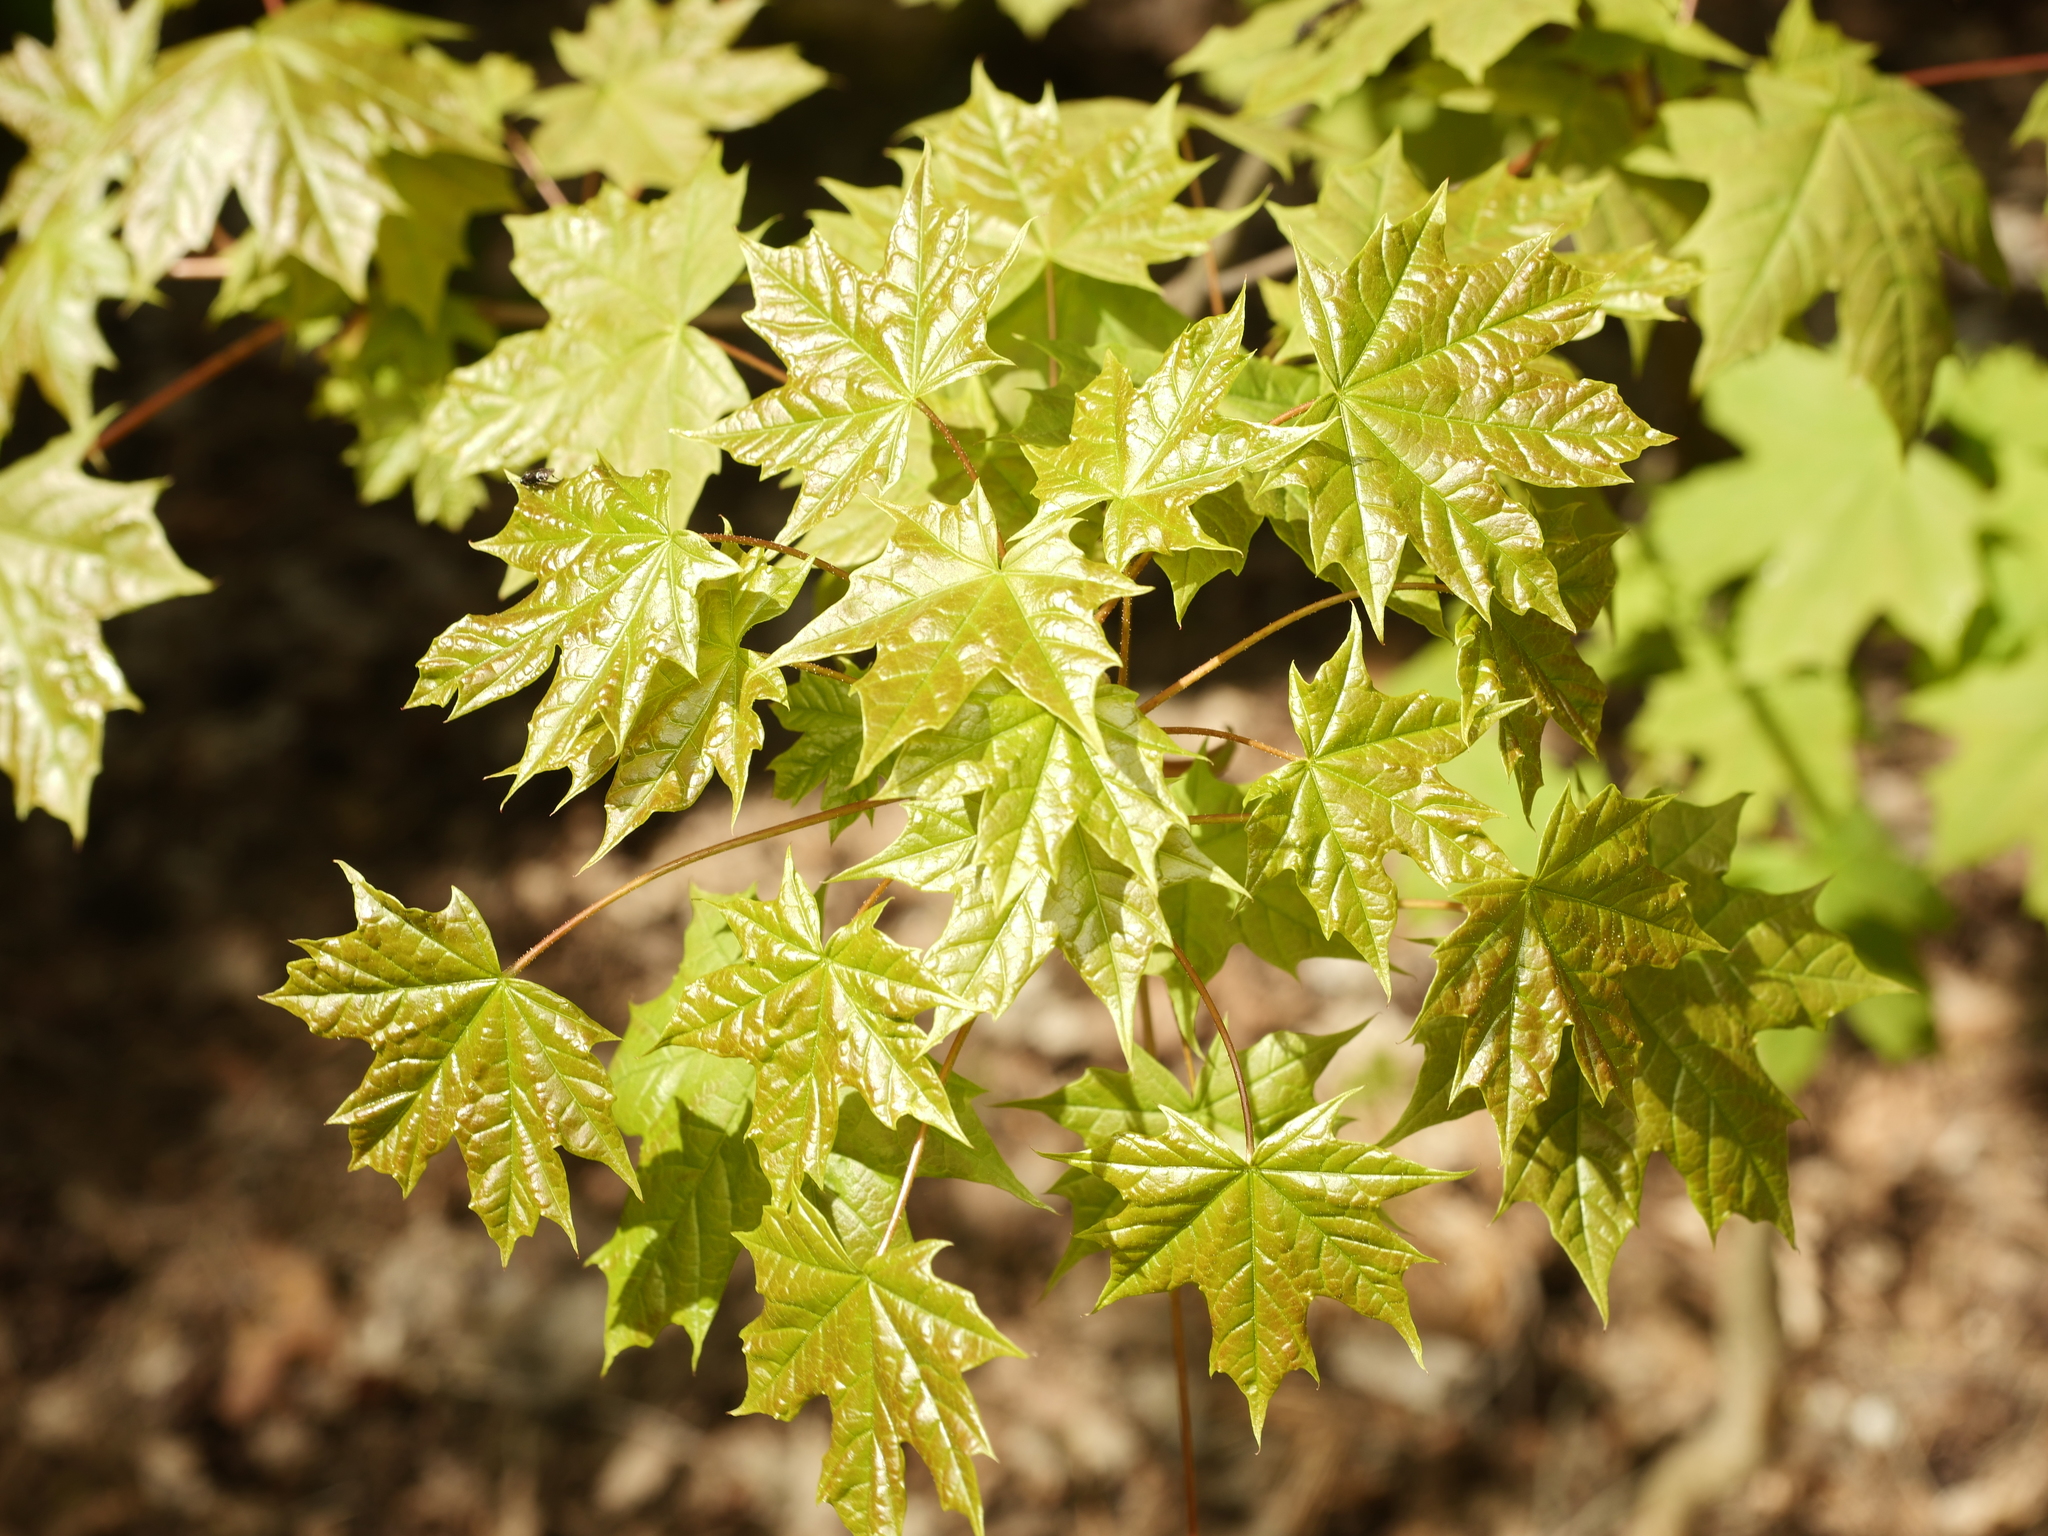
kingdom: Plantae
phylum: Tracheophyta
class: Magnoliopsida
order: Sapindales
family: Sapindaceae
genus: Acer
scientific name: Acer platanoides
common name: Norway maple
